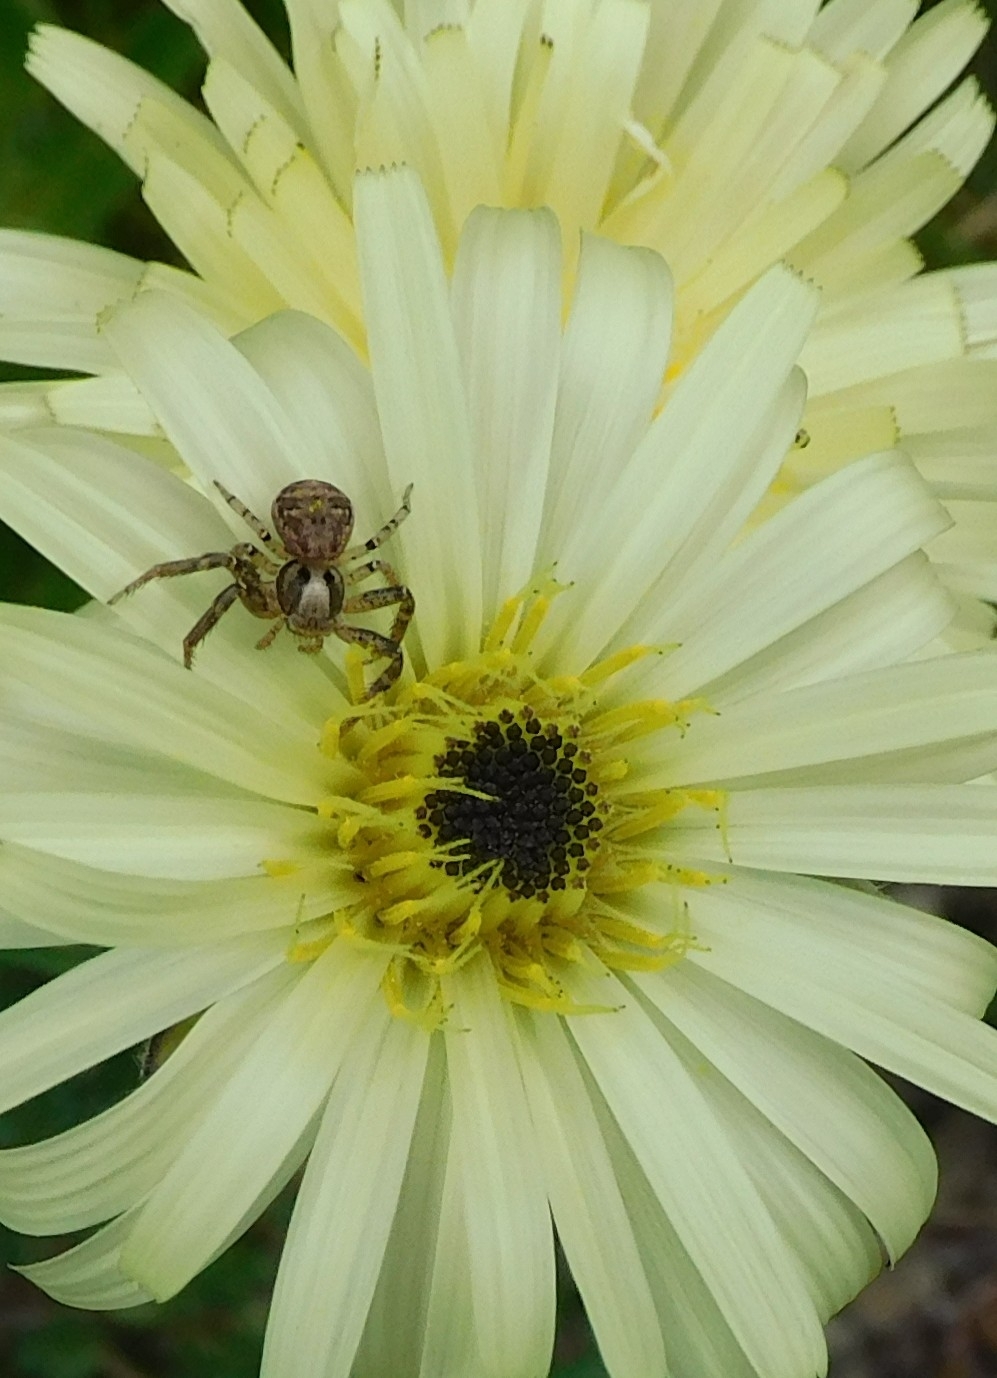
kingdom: Animalia
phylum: Arthropoda
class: Arachnida
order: Araneae
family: Thomisidae
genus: Xysticus
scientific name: Xysticus
